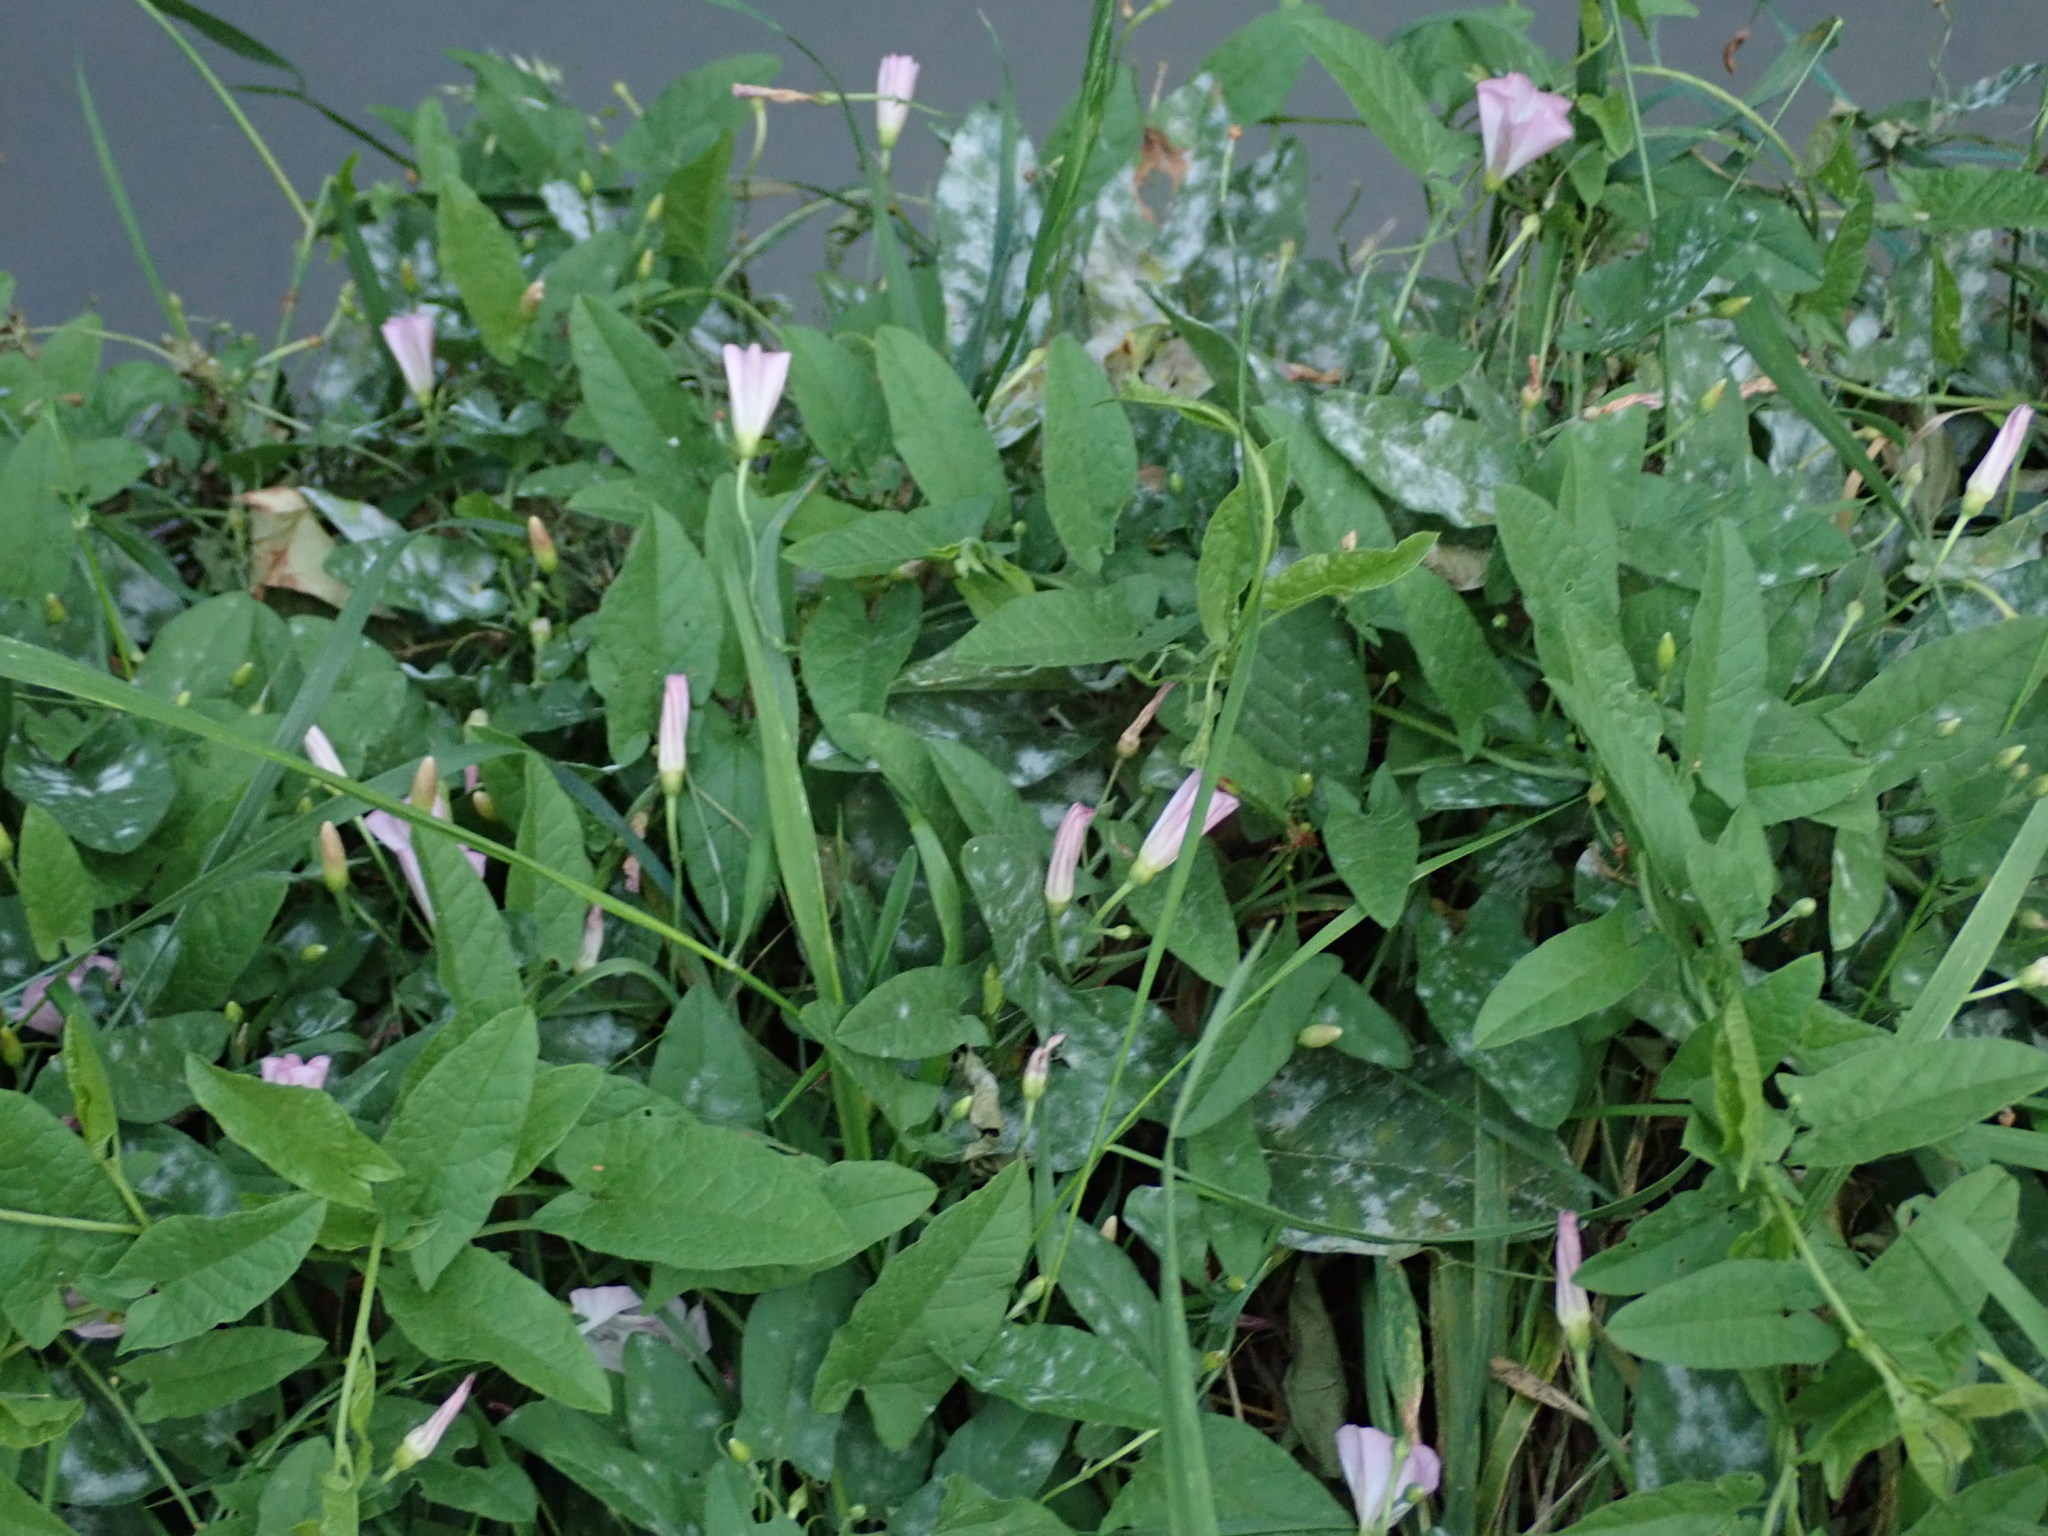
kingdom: Plantae
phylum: Tracheophyta
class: Magnoliopsida
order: Solanales
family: Convolvulaceae
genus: Convolvulus
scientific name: Convolvulus arvensis
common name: Field bindweed
